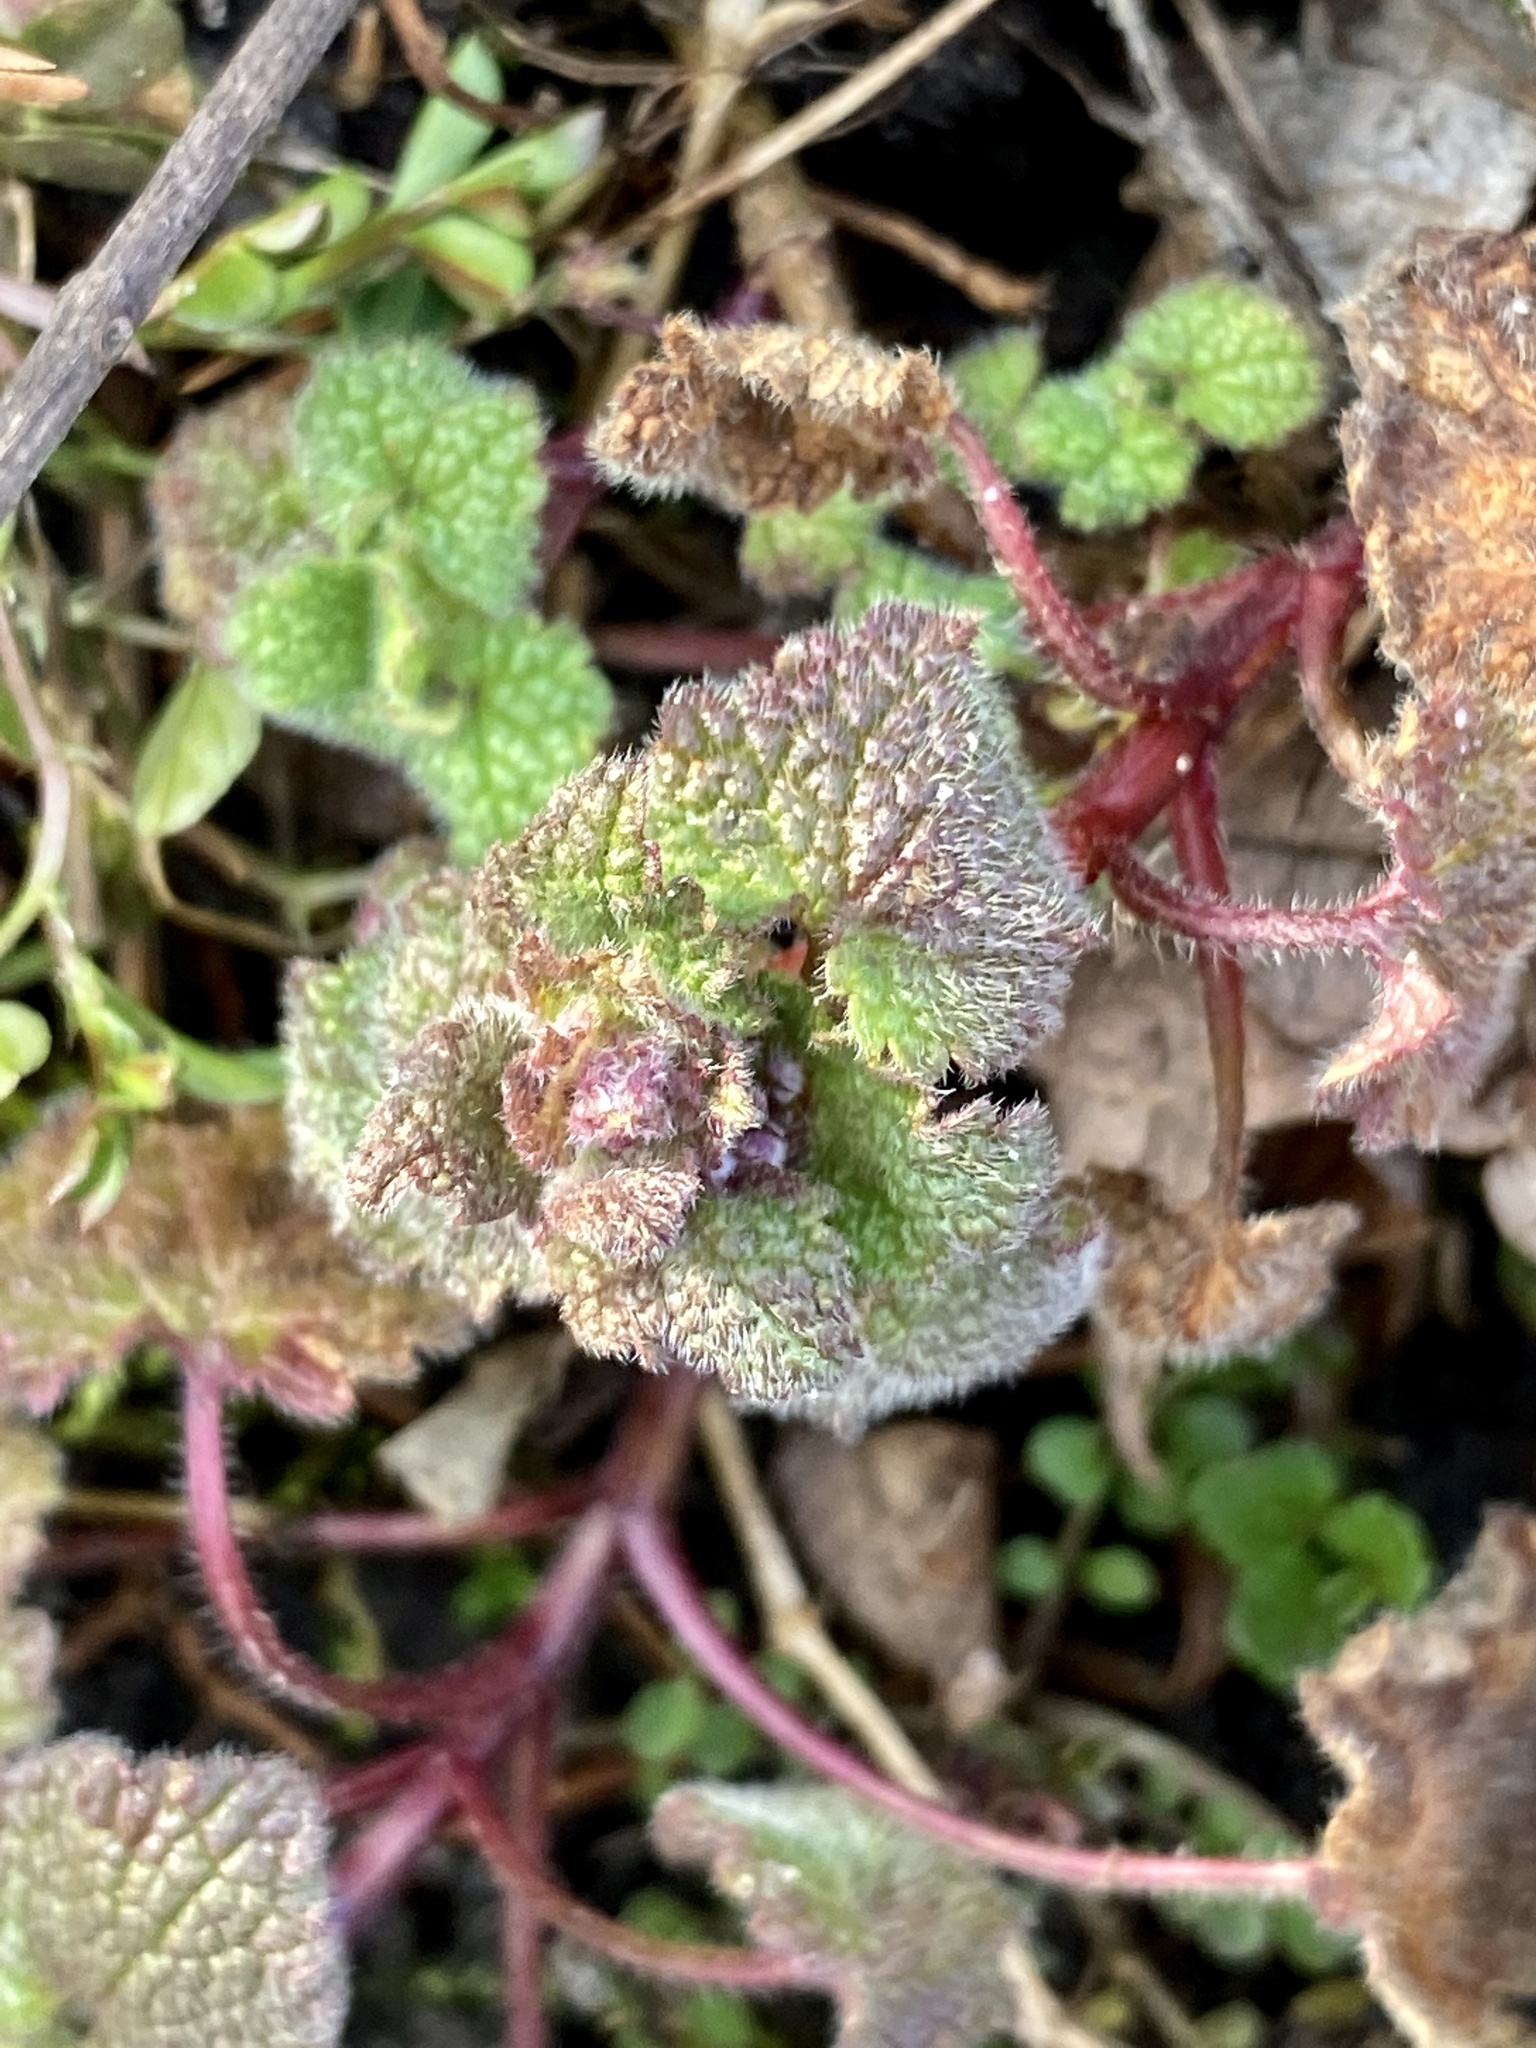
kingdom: Plantae
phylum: Tracheophyta
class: Magnoliopsida
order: Lamiales
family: Lamiaceae
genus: Lamium
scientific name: Lamium purpureum
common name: Red dead-nettle
